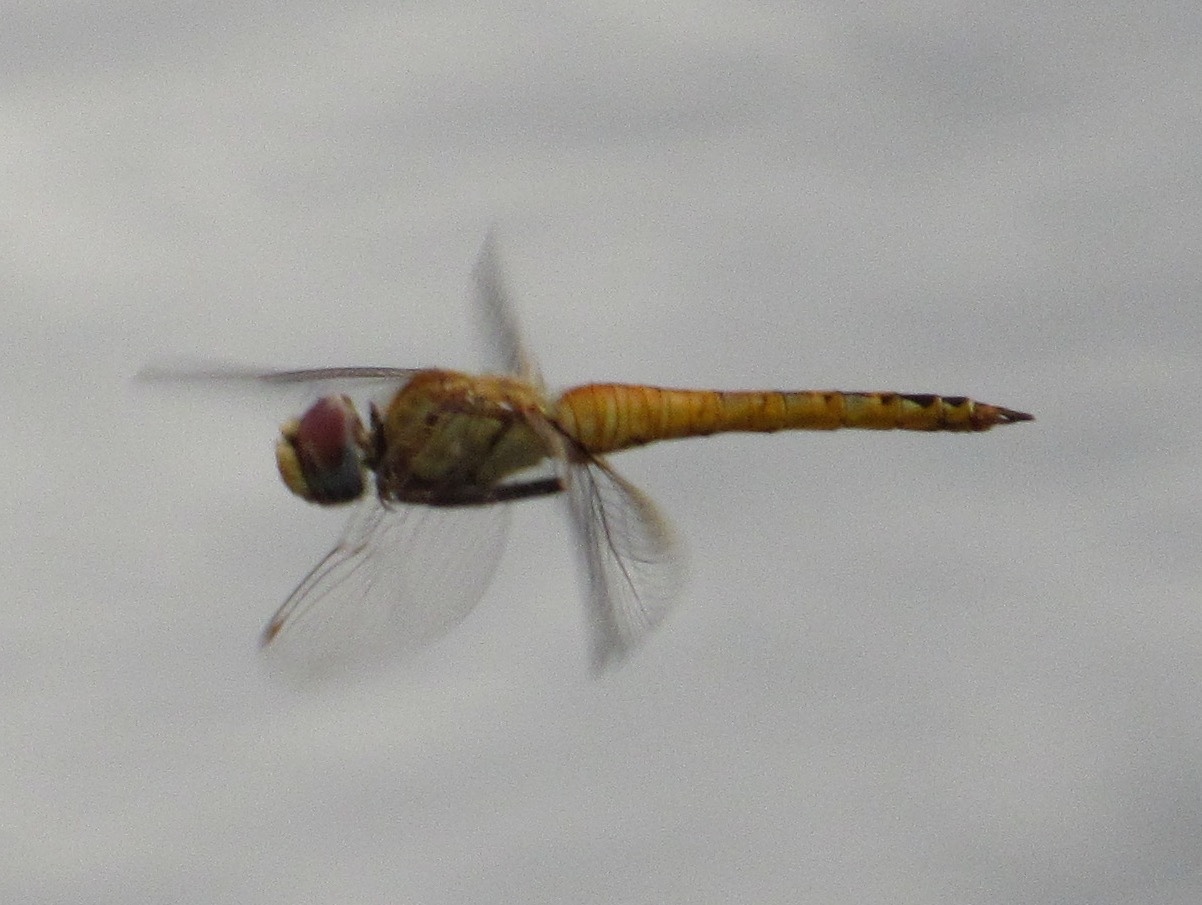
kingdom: Animalia
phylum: Arthropoda
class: Insecta
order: Odonata
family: Libellulidae
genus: Pantala
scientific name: Pantala flavescens
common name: Wandering glider
